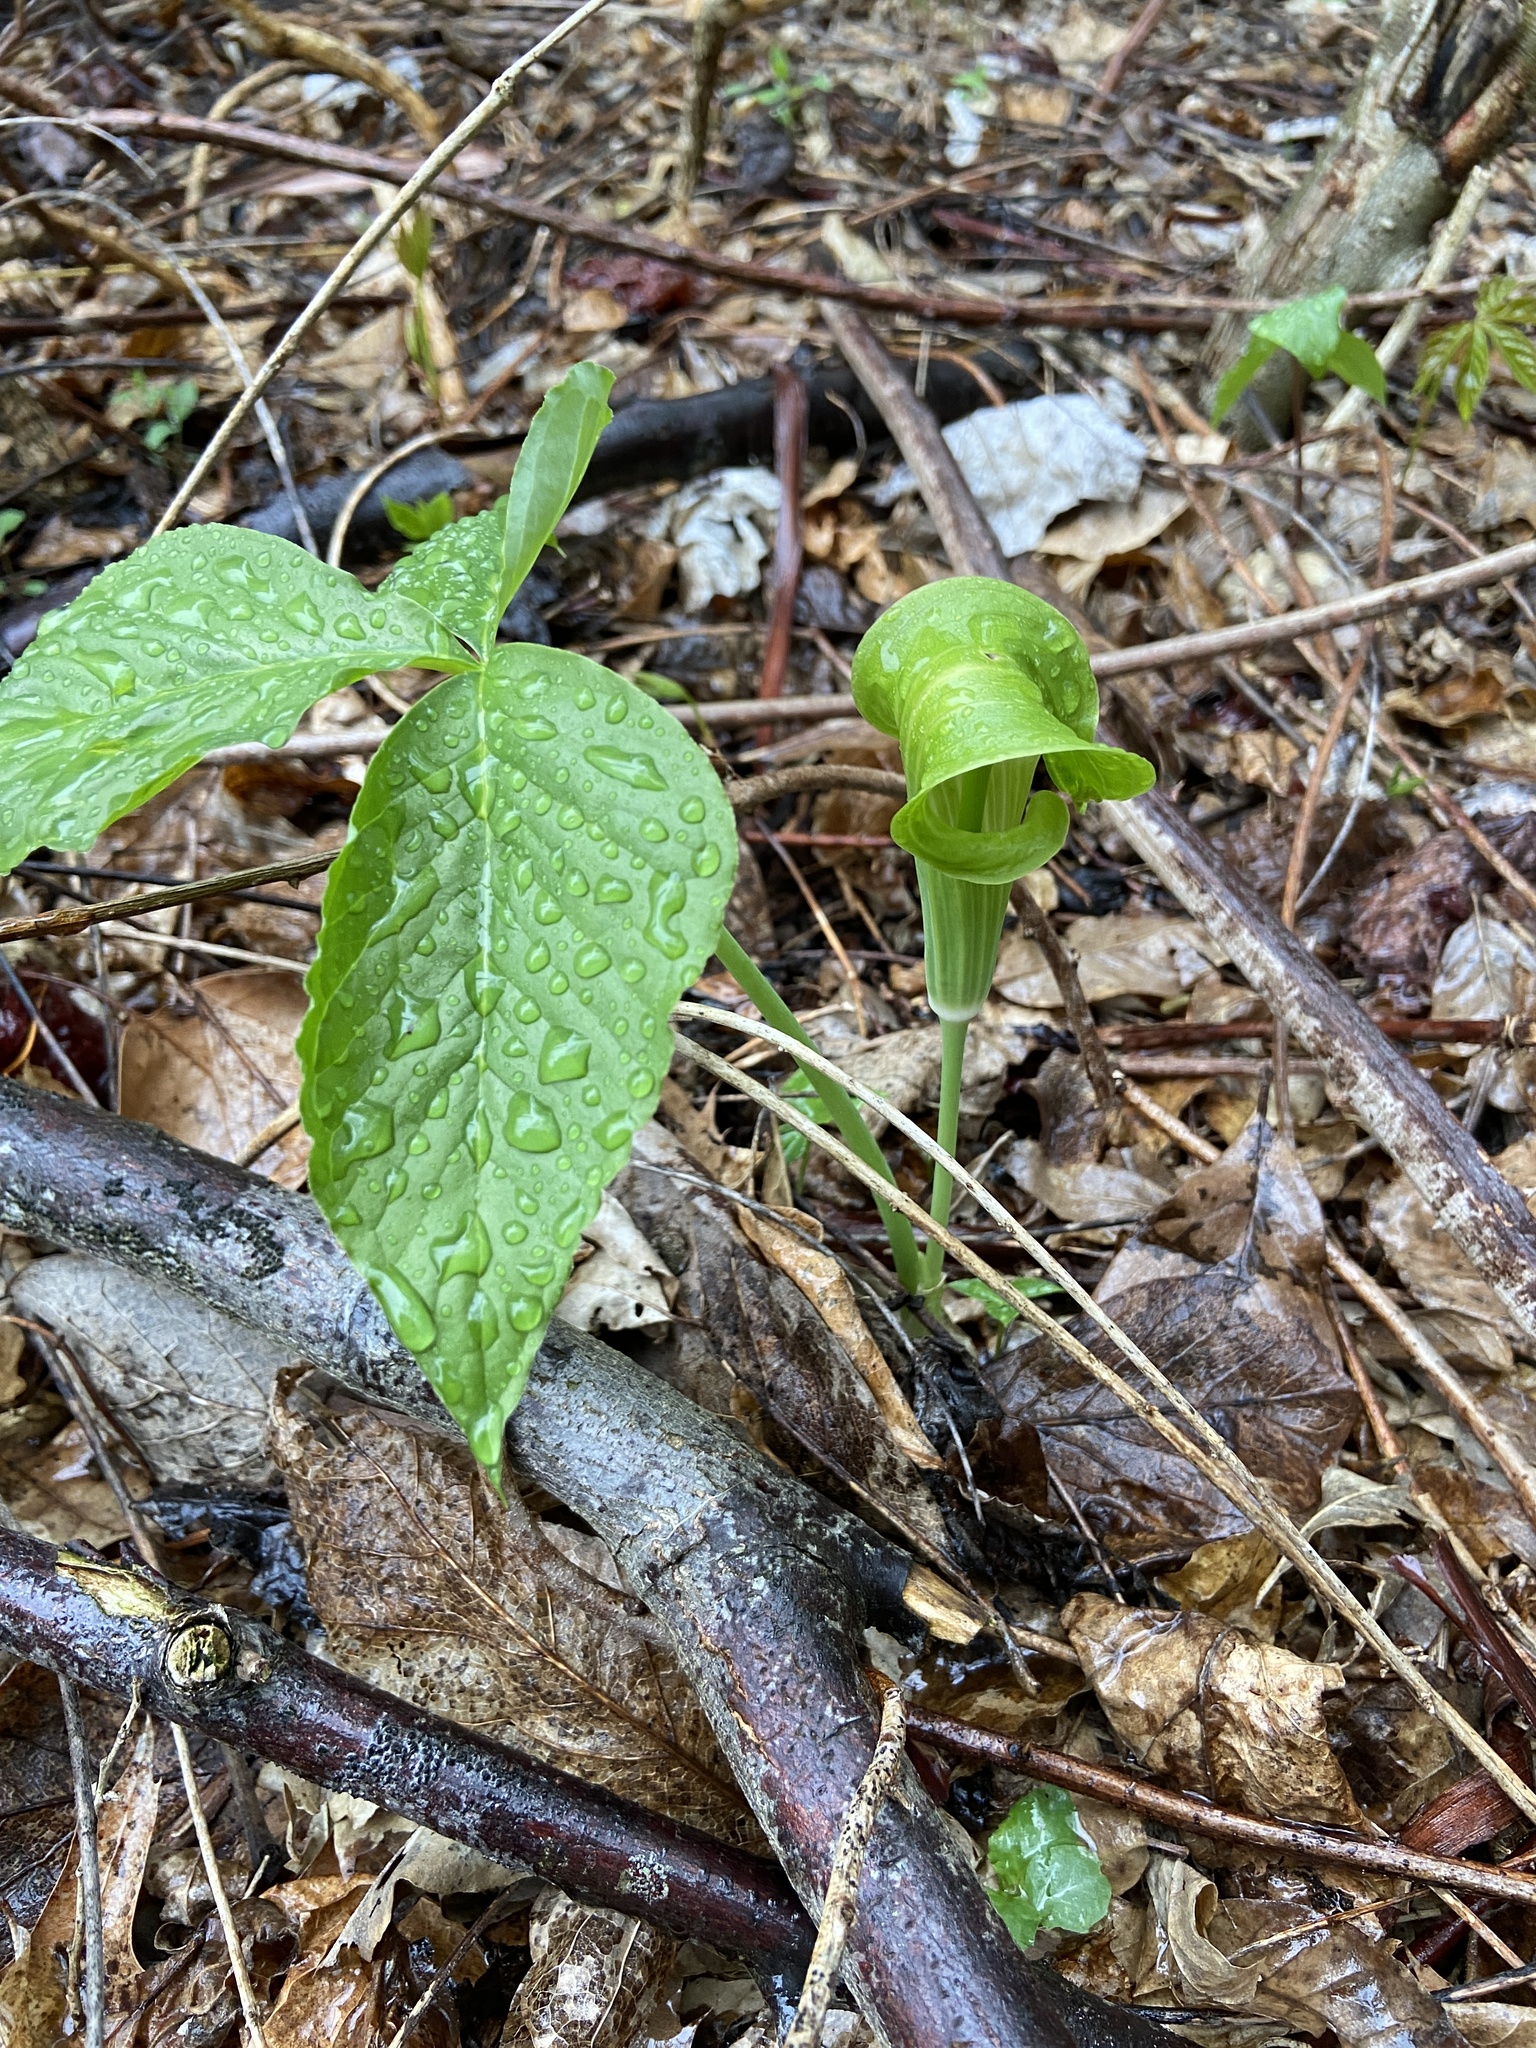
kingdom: Plantae
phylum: Tracheophyta
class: Liliopsida
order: Alismatales
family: Araceae
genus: Arisaema
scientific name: Arisaema triphyllum
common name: Jack-in-the-pulpit
